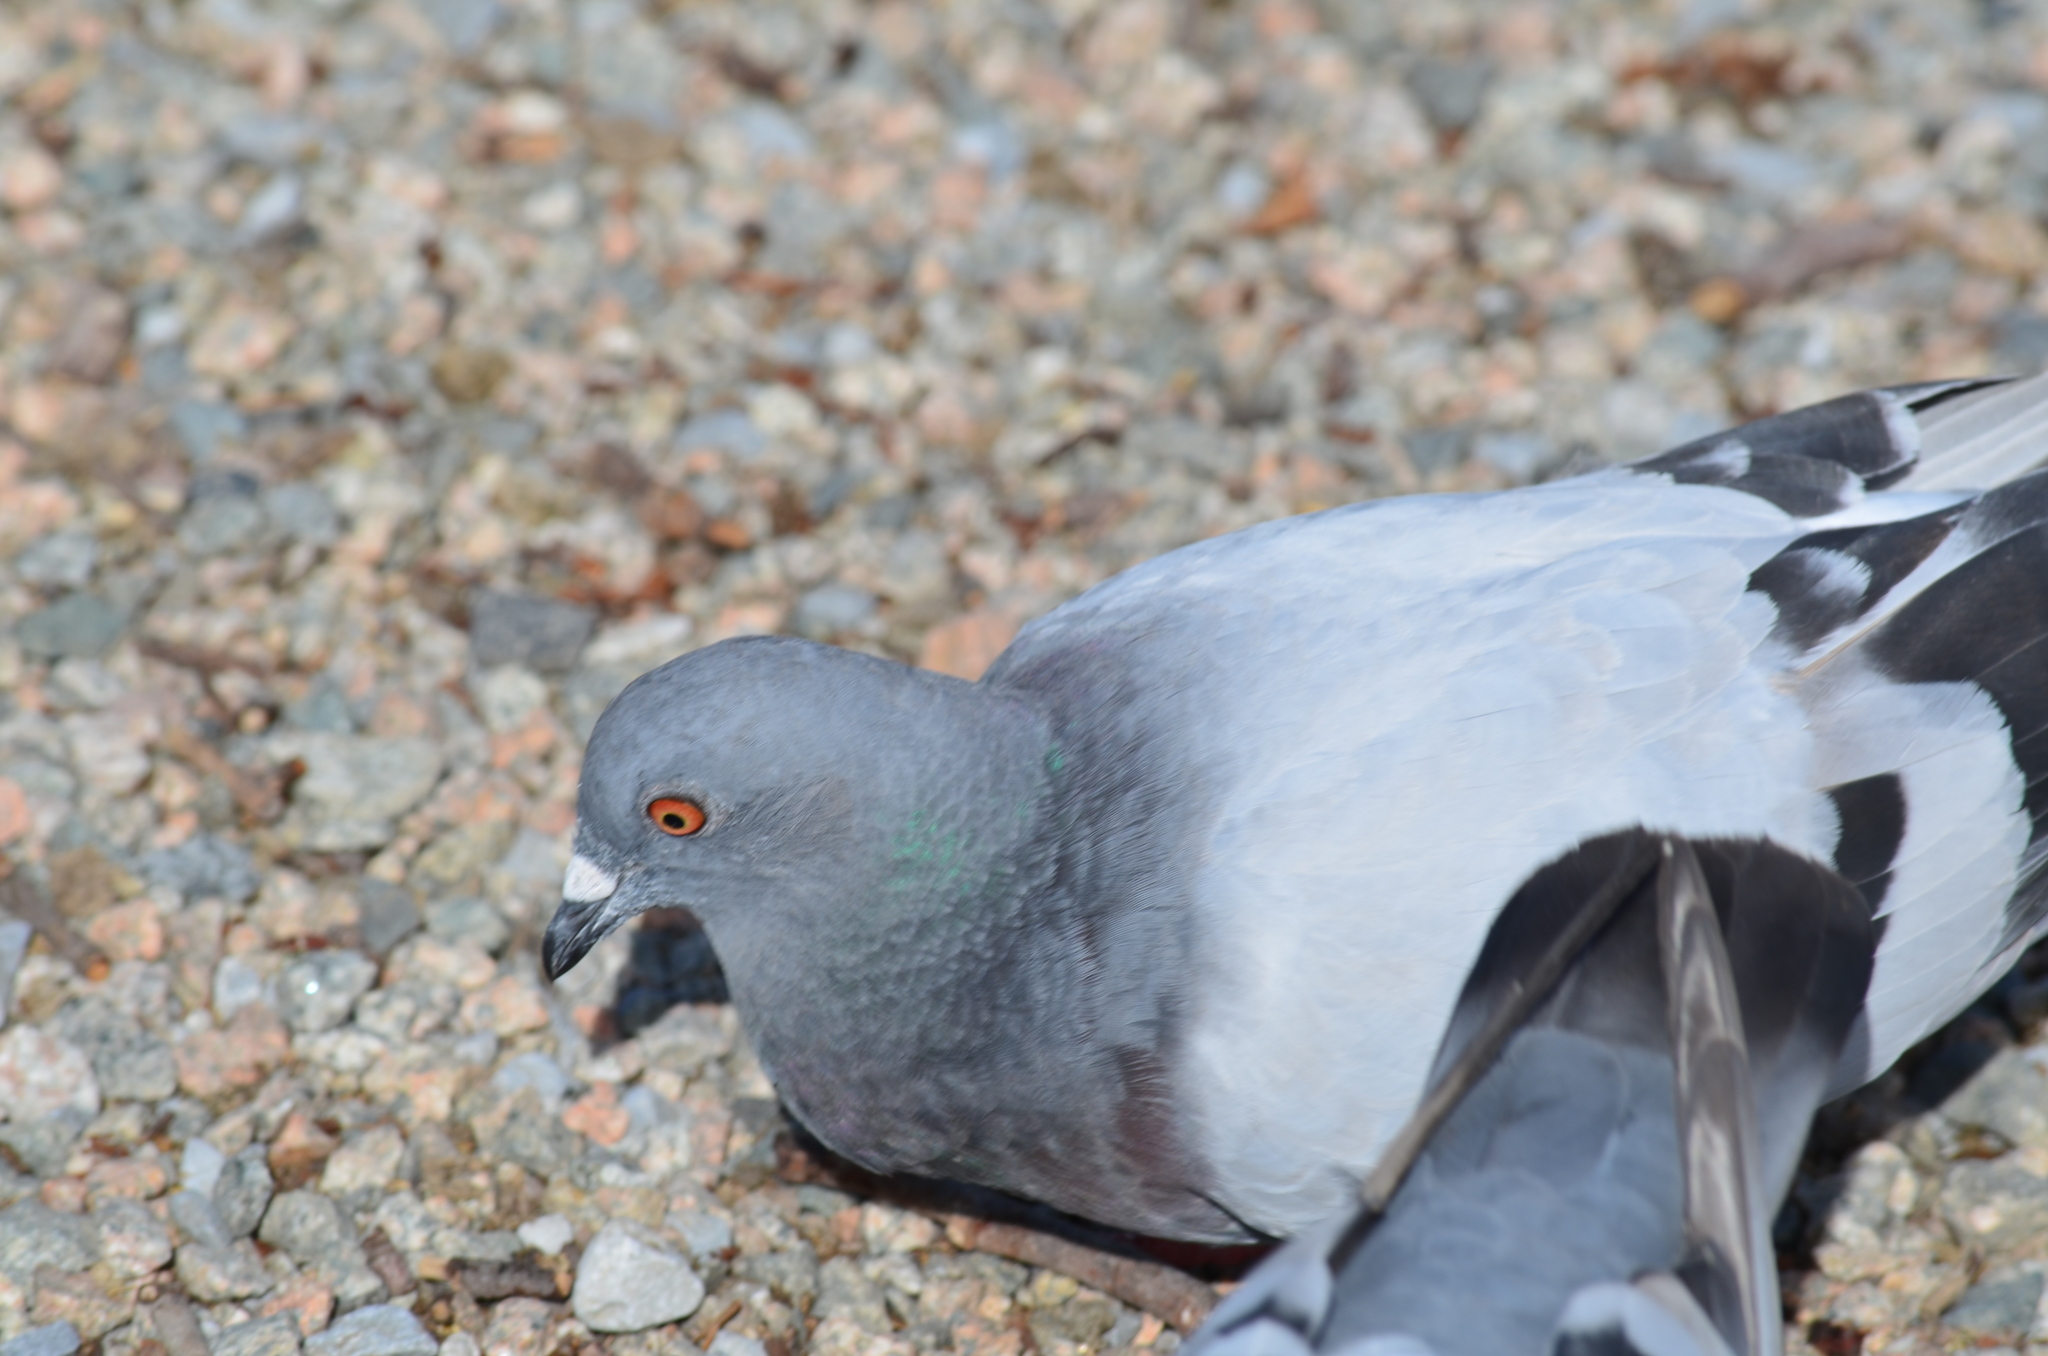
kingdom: Animalia
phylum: Chordata
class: Aves
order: Columbiformes
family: Columbidae
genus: Columba
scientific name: Columba livia
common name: Rock pigeon
